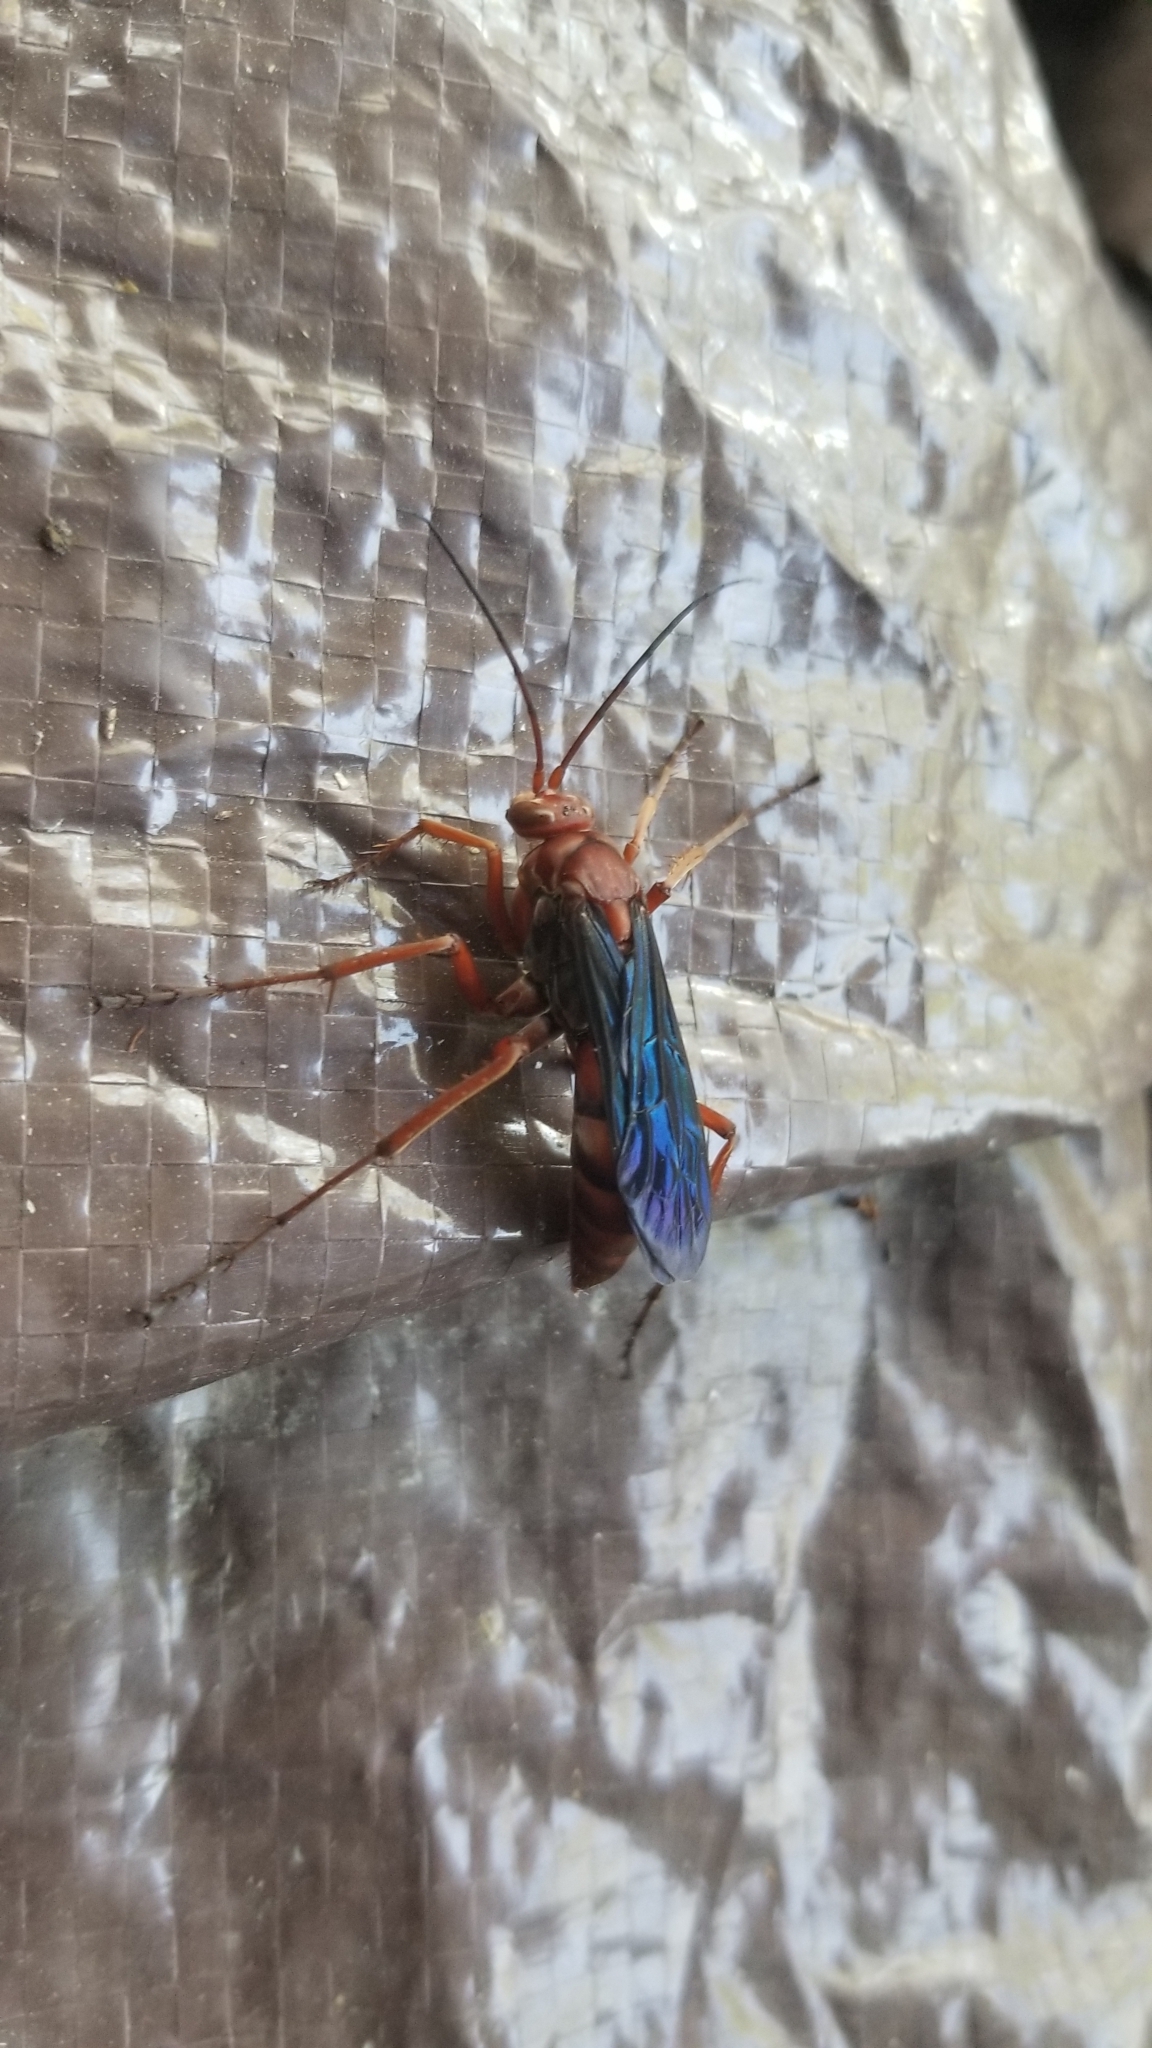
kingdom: Animalia
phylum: Arthropoda
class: Insecta
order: Hymenoptera
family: Pompilidae
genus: Tachypompilus
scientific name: Tachypompilus ferrugineus
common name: Rusty spider wasp
